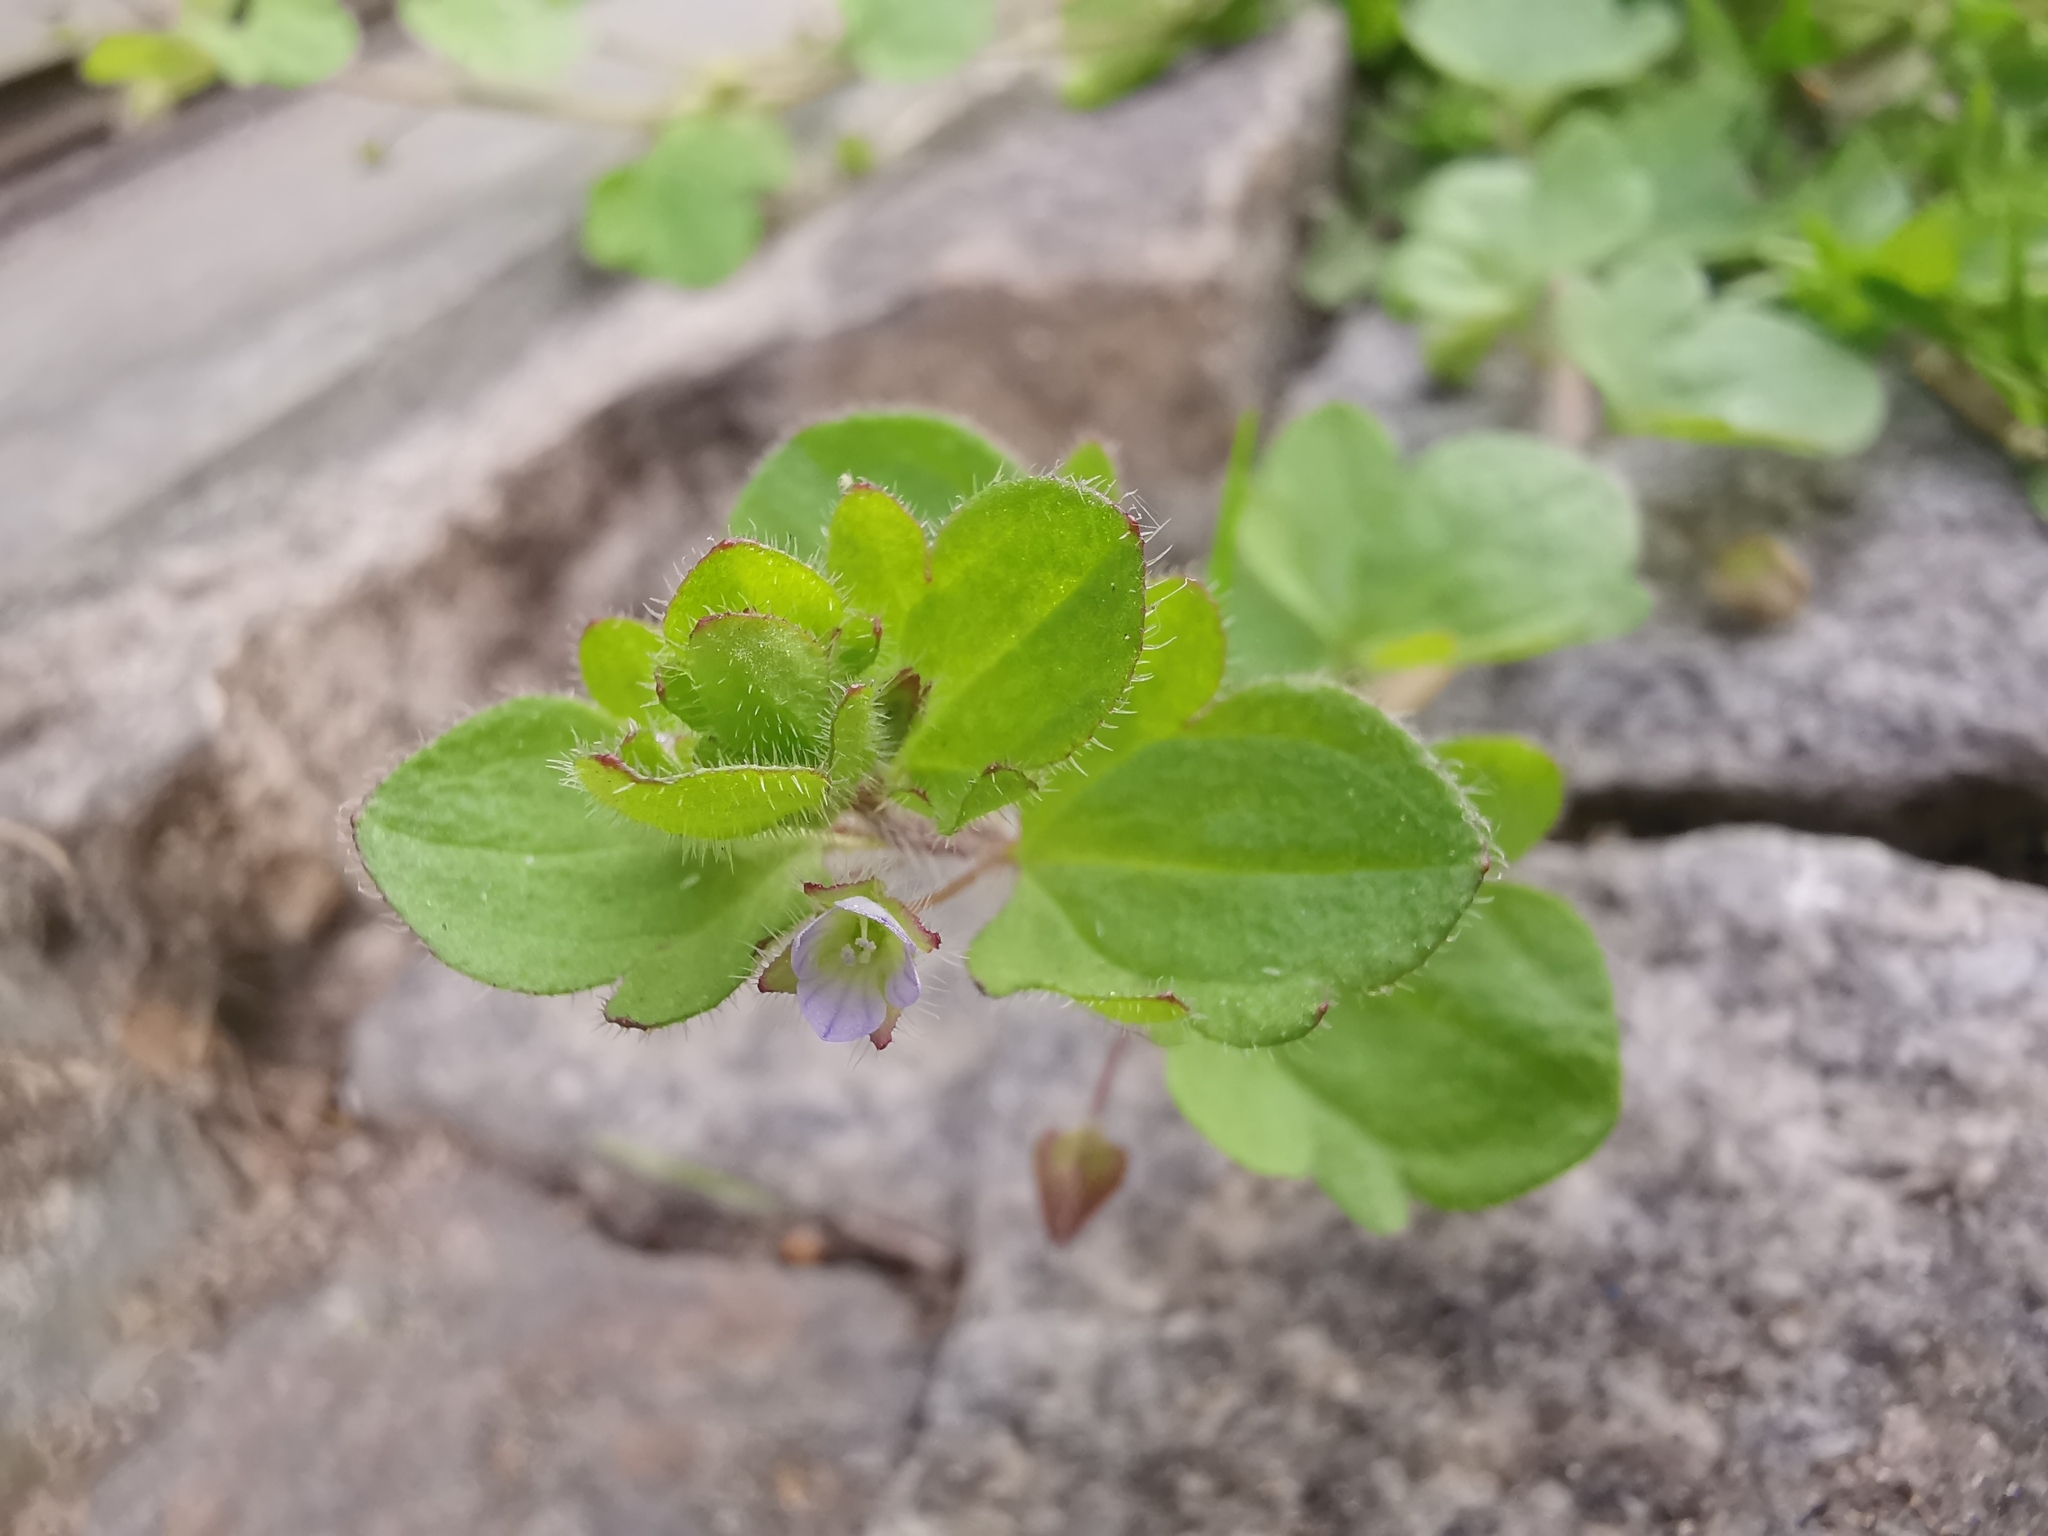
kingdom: Plantae
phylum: Tracheophyta
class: Magnoliopsida
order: Lamiales
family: Plantaginaceae
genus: Veronica
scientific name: Veronica sublobata
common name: False ivy-leaved speedwell
